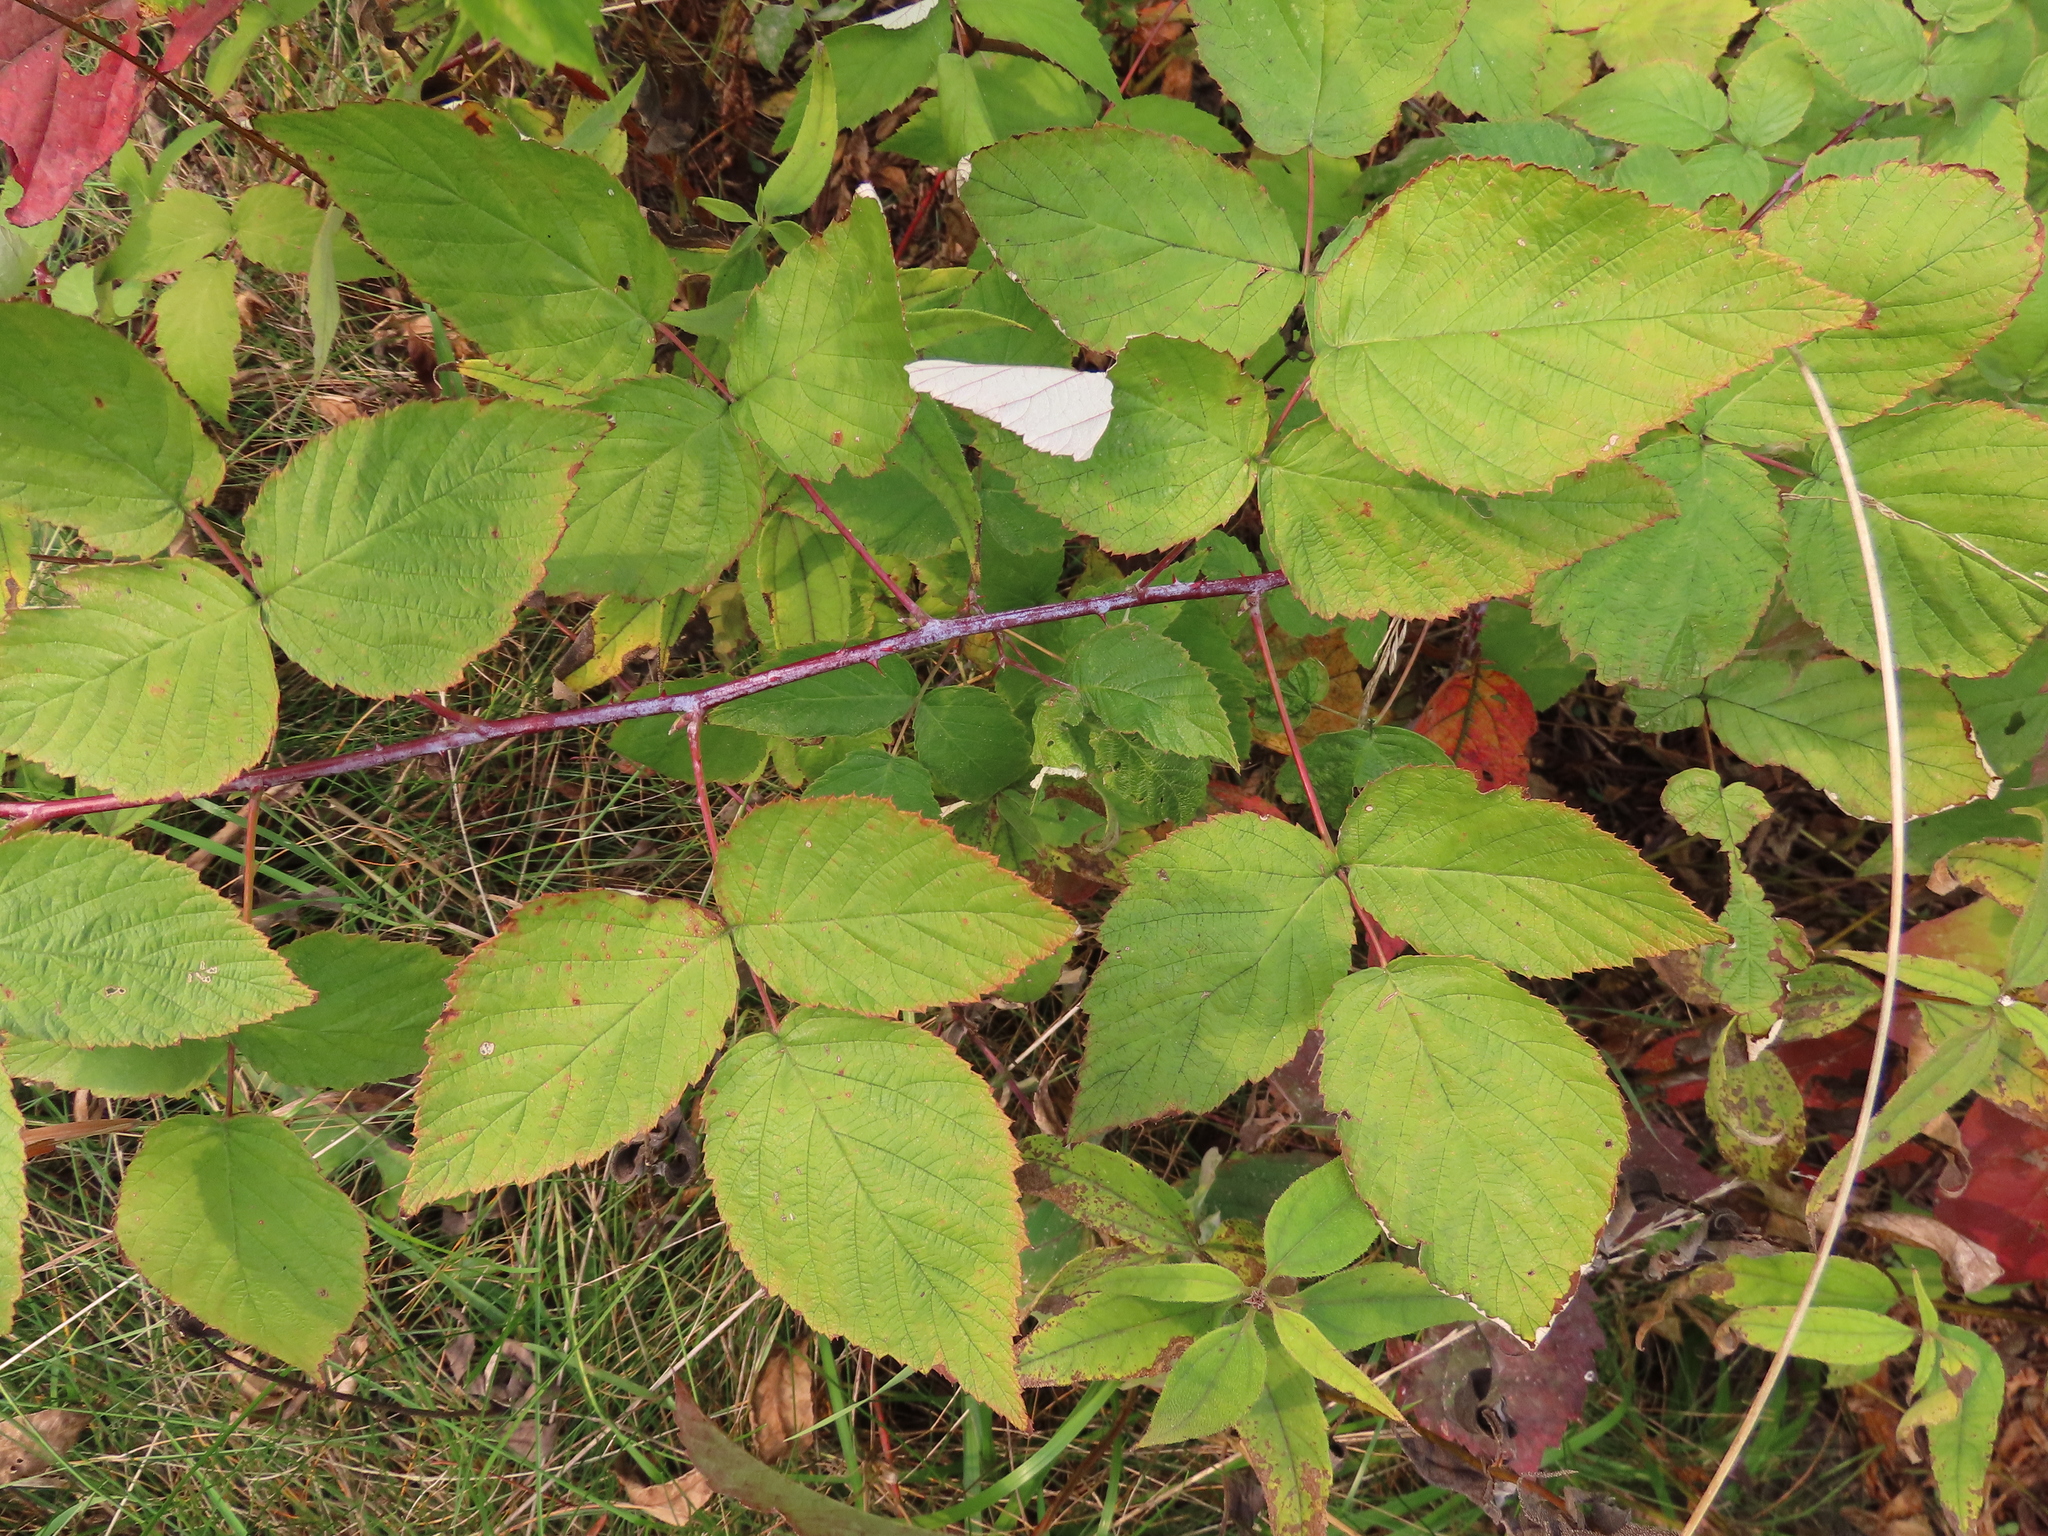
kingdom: Plantae
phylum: Tracheophyta
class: Magnoliopsida
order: Rosales
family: Rosaceae
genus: Rubus
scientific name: Rubus occidentalis
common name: Black raspberry
